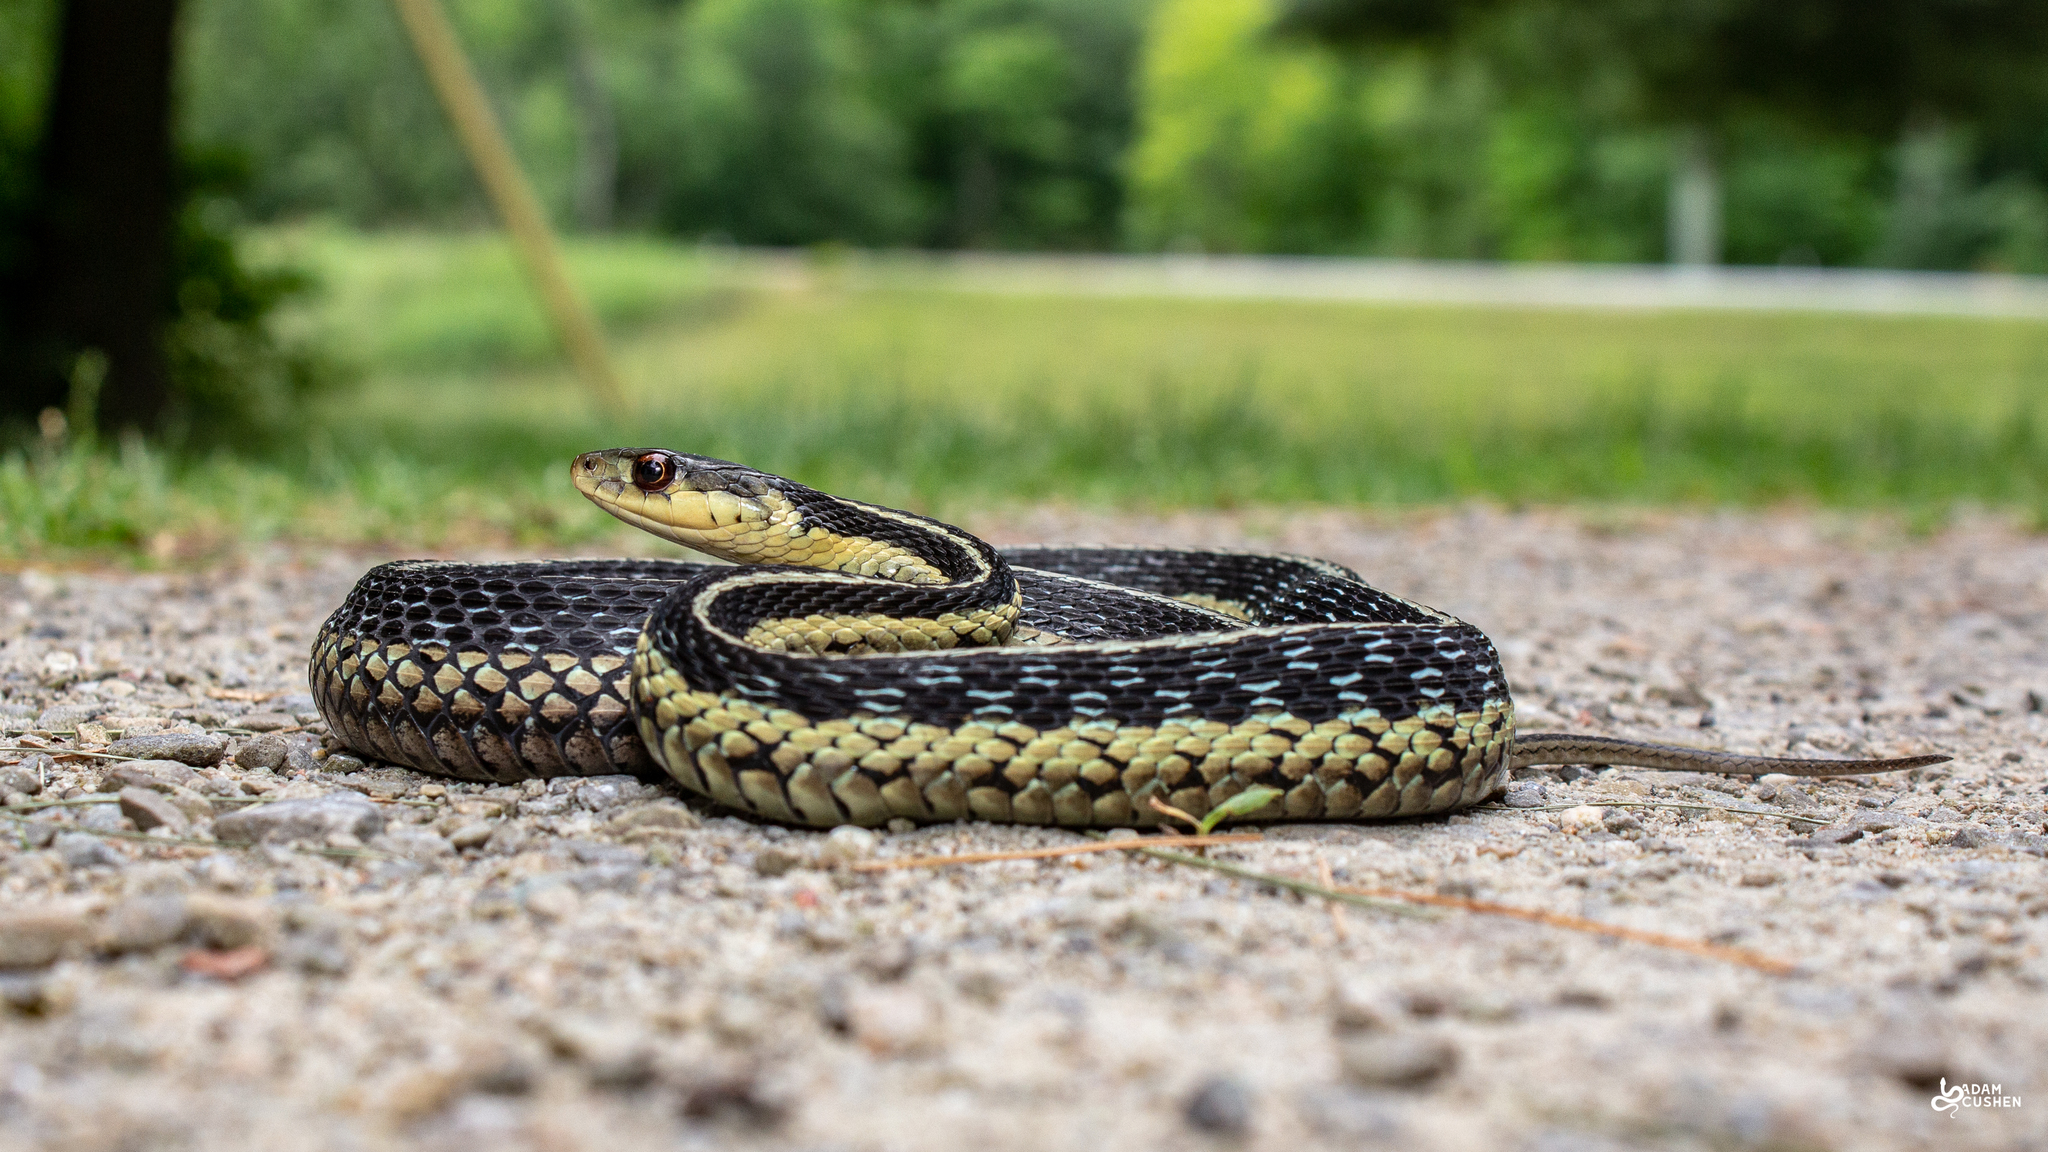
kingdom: Animalia
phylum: Chordata
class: Squamata
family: Colubridae
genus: Thamnophis
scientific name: Thamnophis sirtalis
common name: Common garter snake
